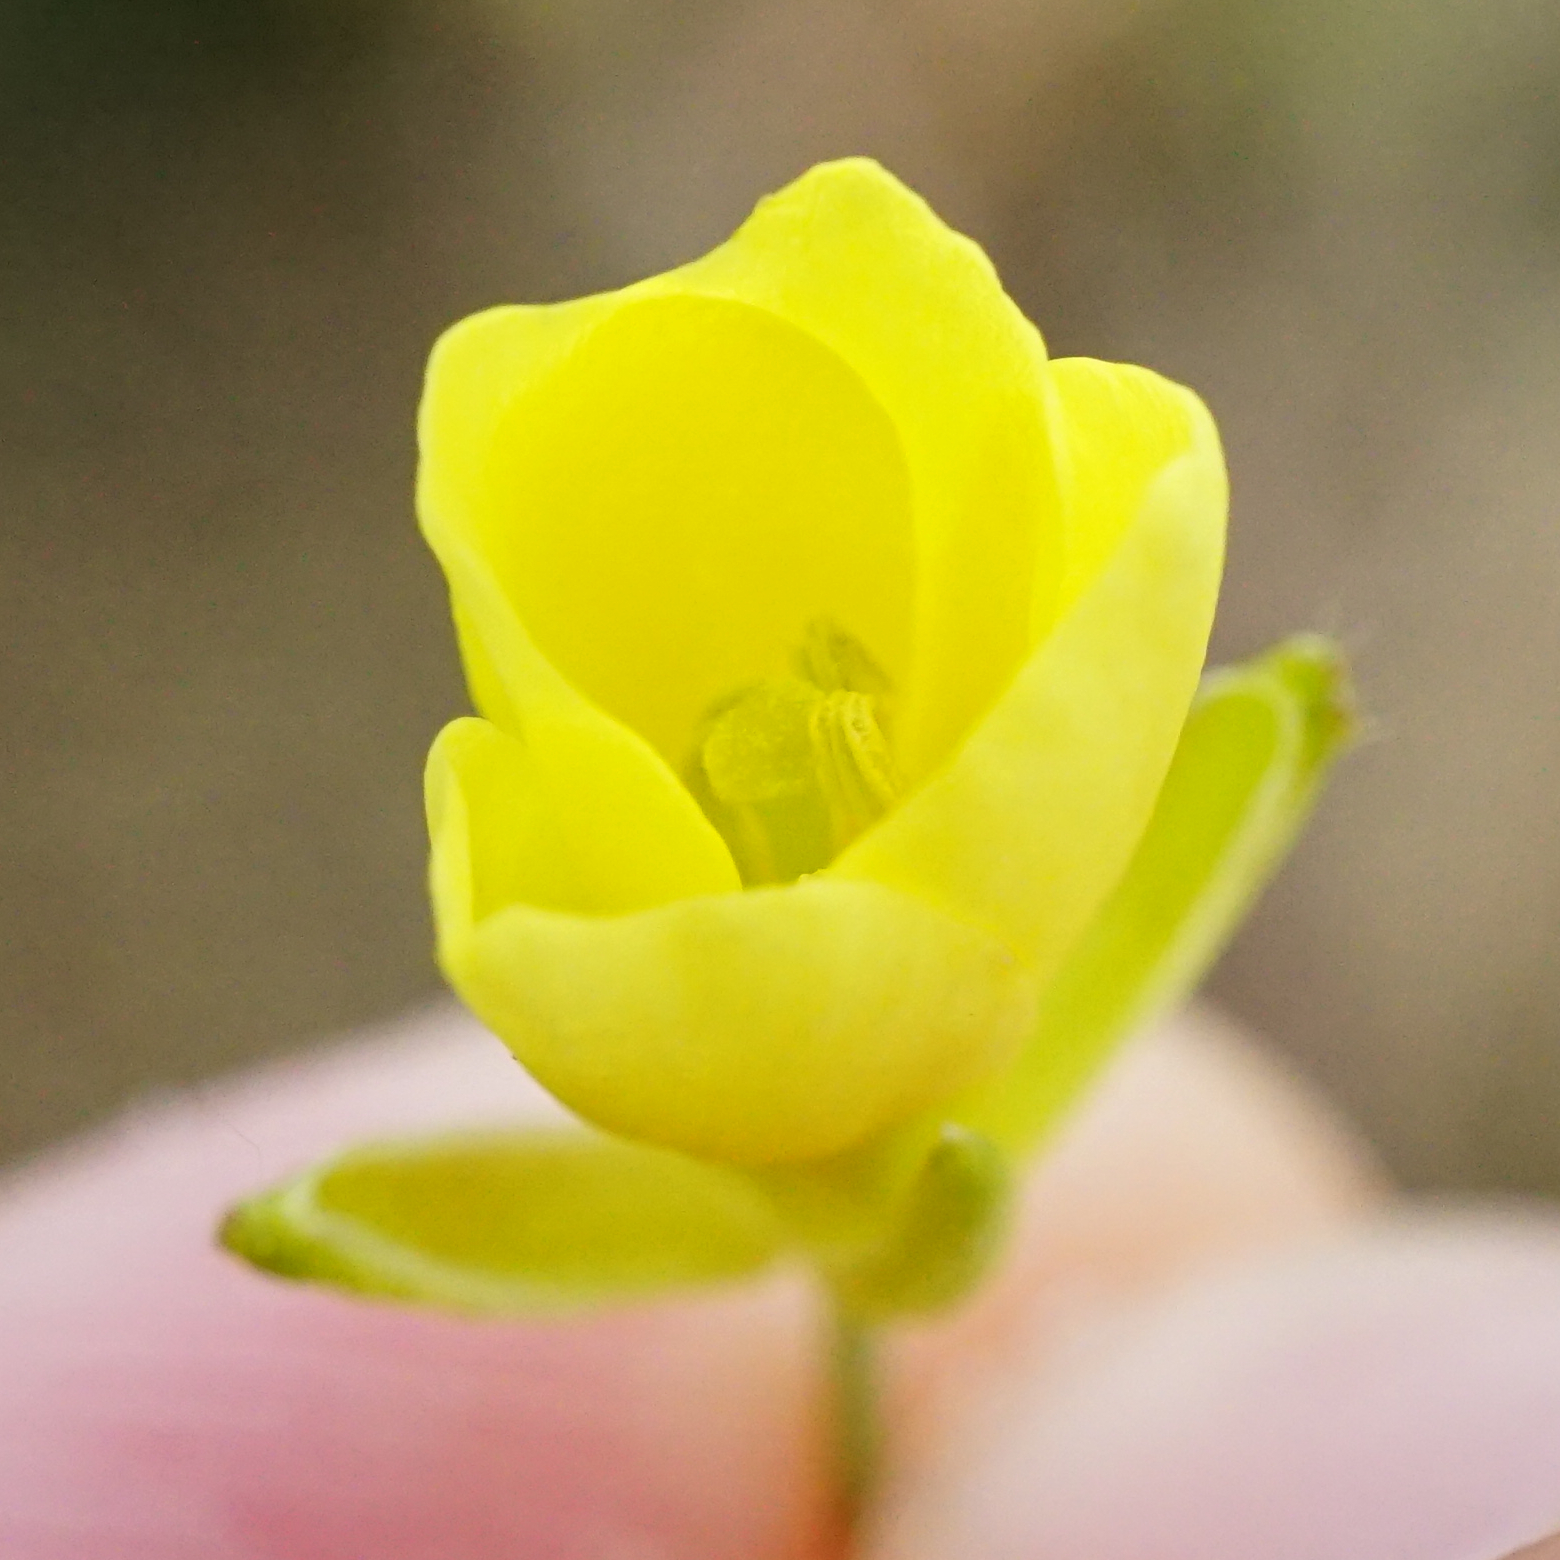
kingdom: Plantae
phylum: Tracheophyta
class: Magnoliopsida
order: Brassicales
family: Brassicaceae
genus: Diplotaxis
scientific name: Diplotaxis tenuifolia
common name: Perennial wall-rocket
